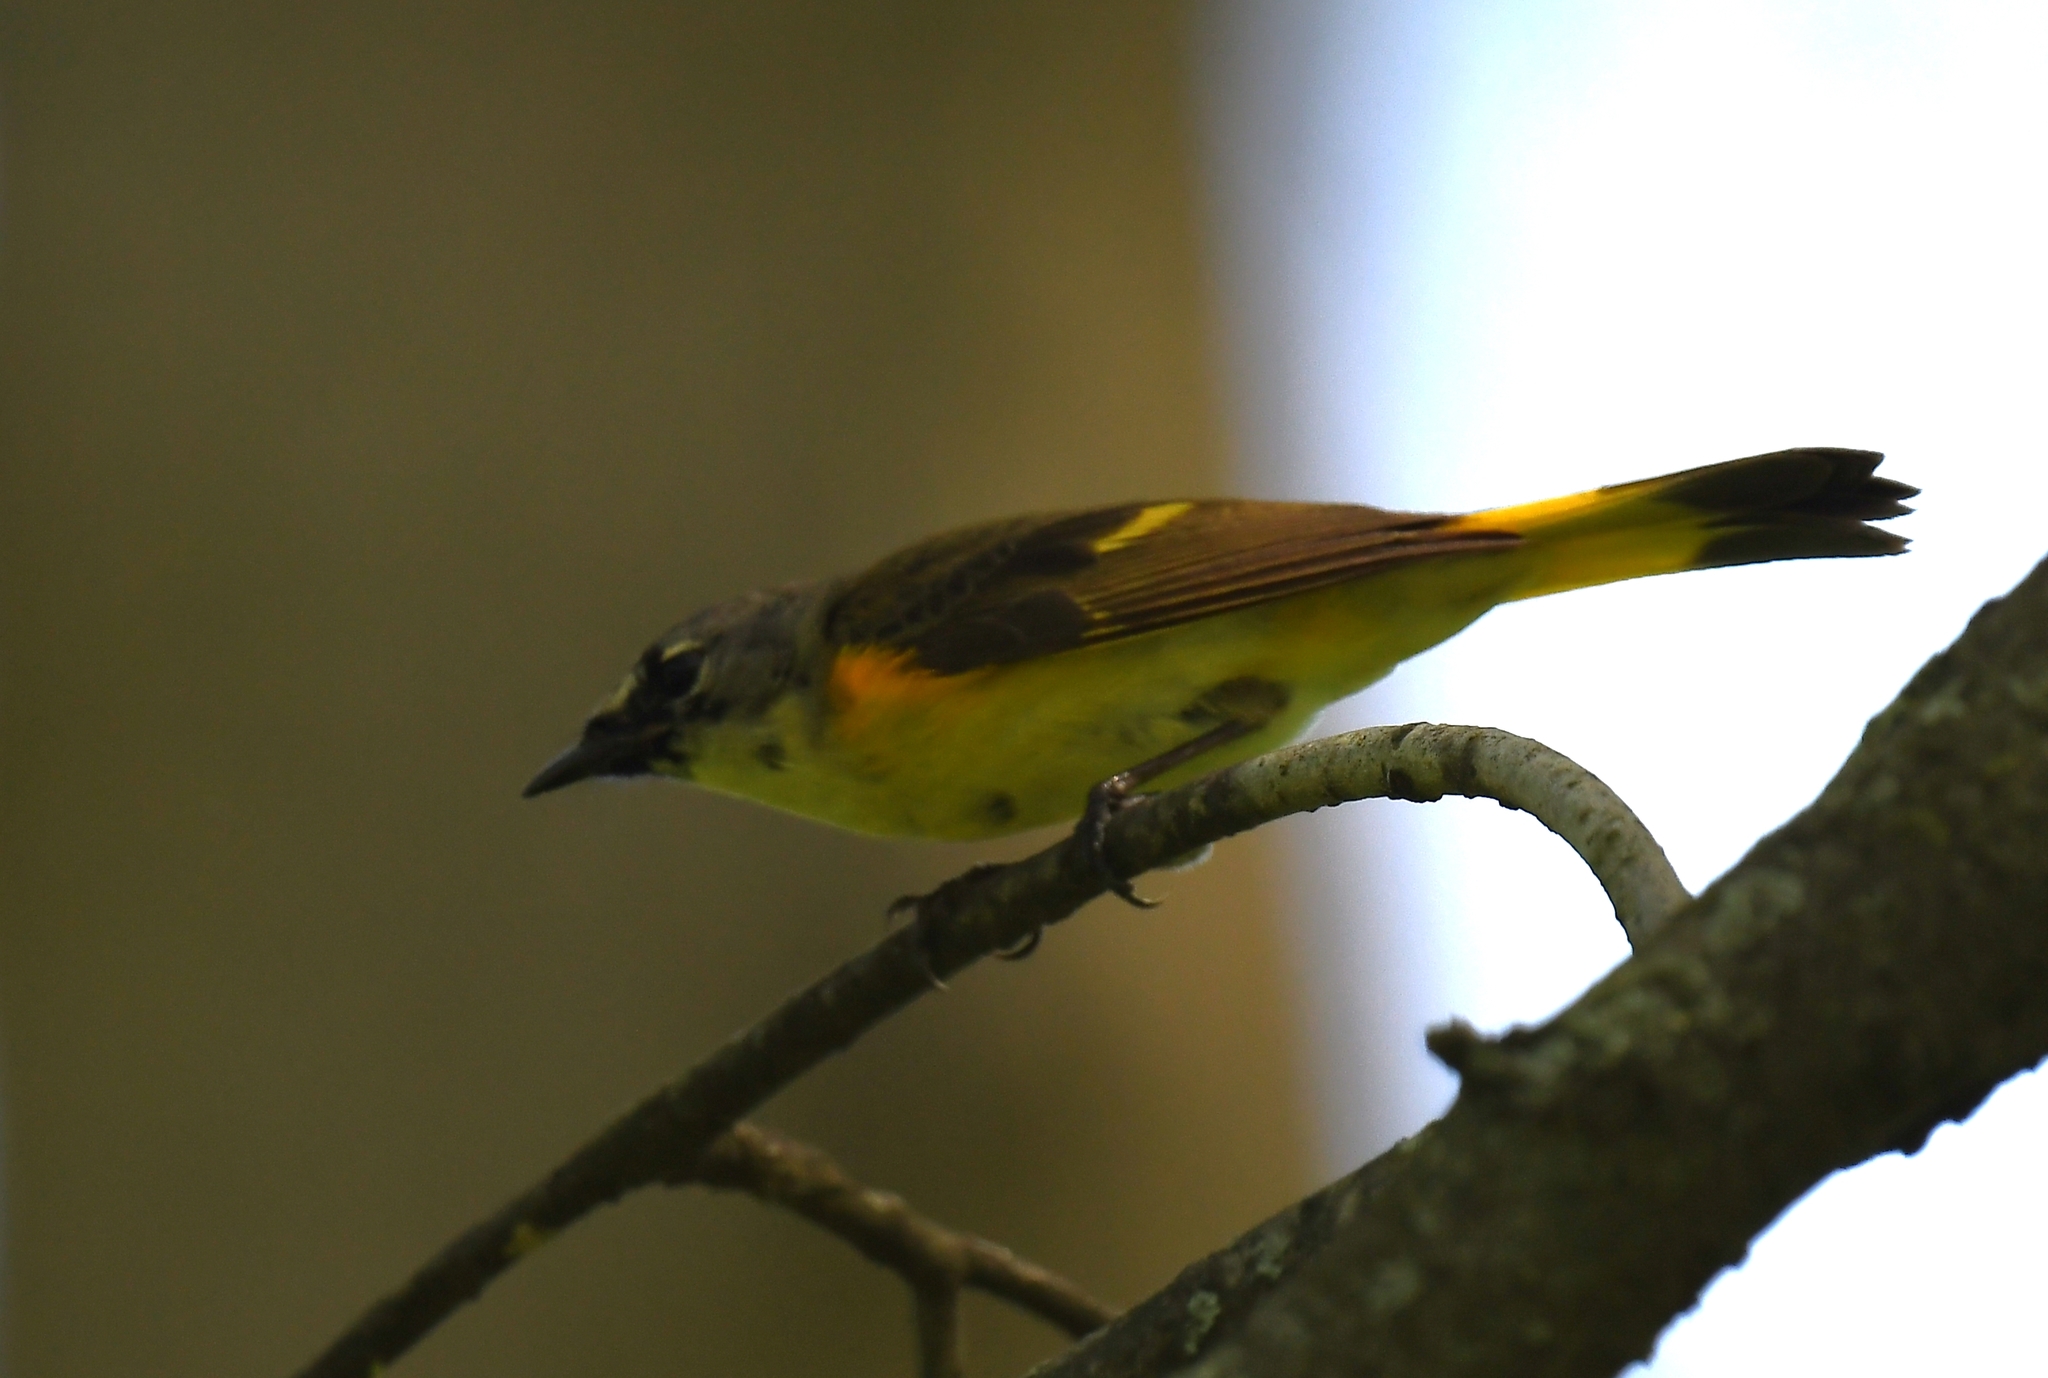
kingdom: Animalia
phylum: Chordata
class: Aves
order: Passeriformes
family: Parulidae
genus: Setophaga
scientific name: Setophaga ruticilla
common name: American redstart
